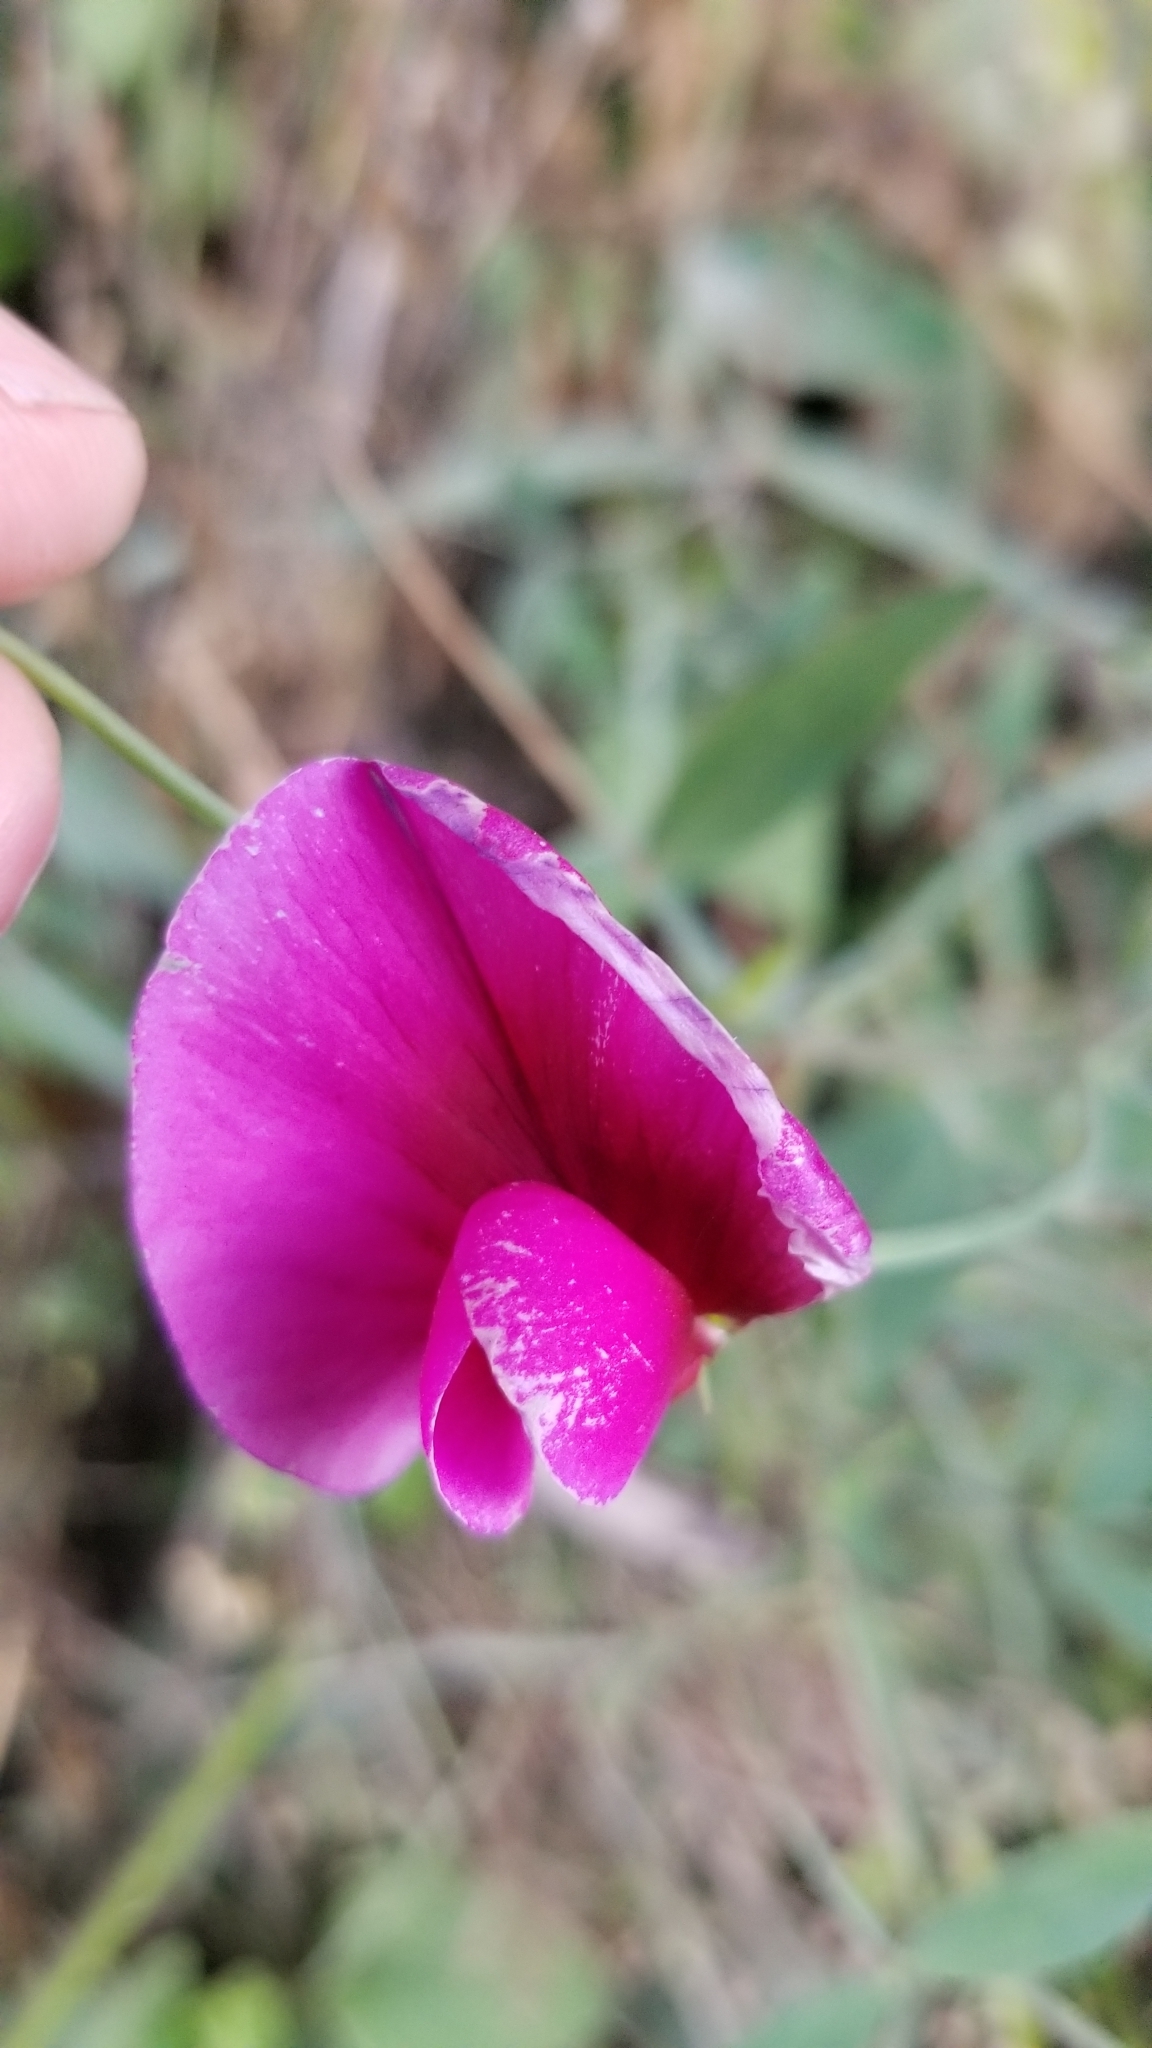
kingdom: Plantae
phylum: Tracheophyta
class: Magnoliopsida
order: Fabales
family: Fabaceae
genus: Lathyrus
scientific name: Lathyrus tingitanus
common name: Tangier pea
